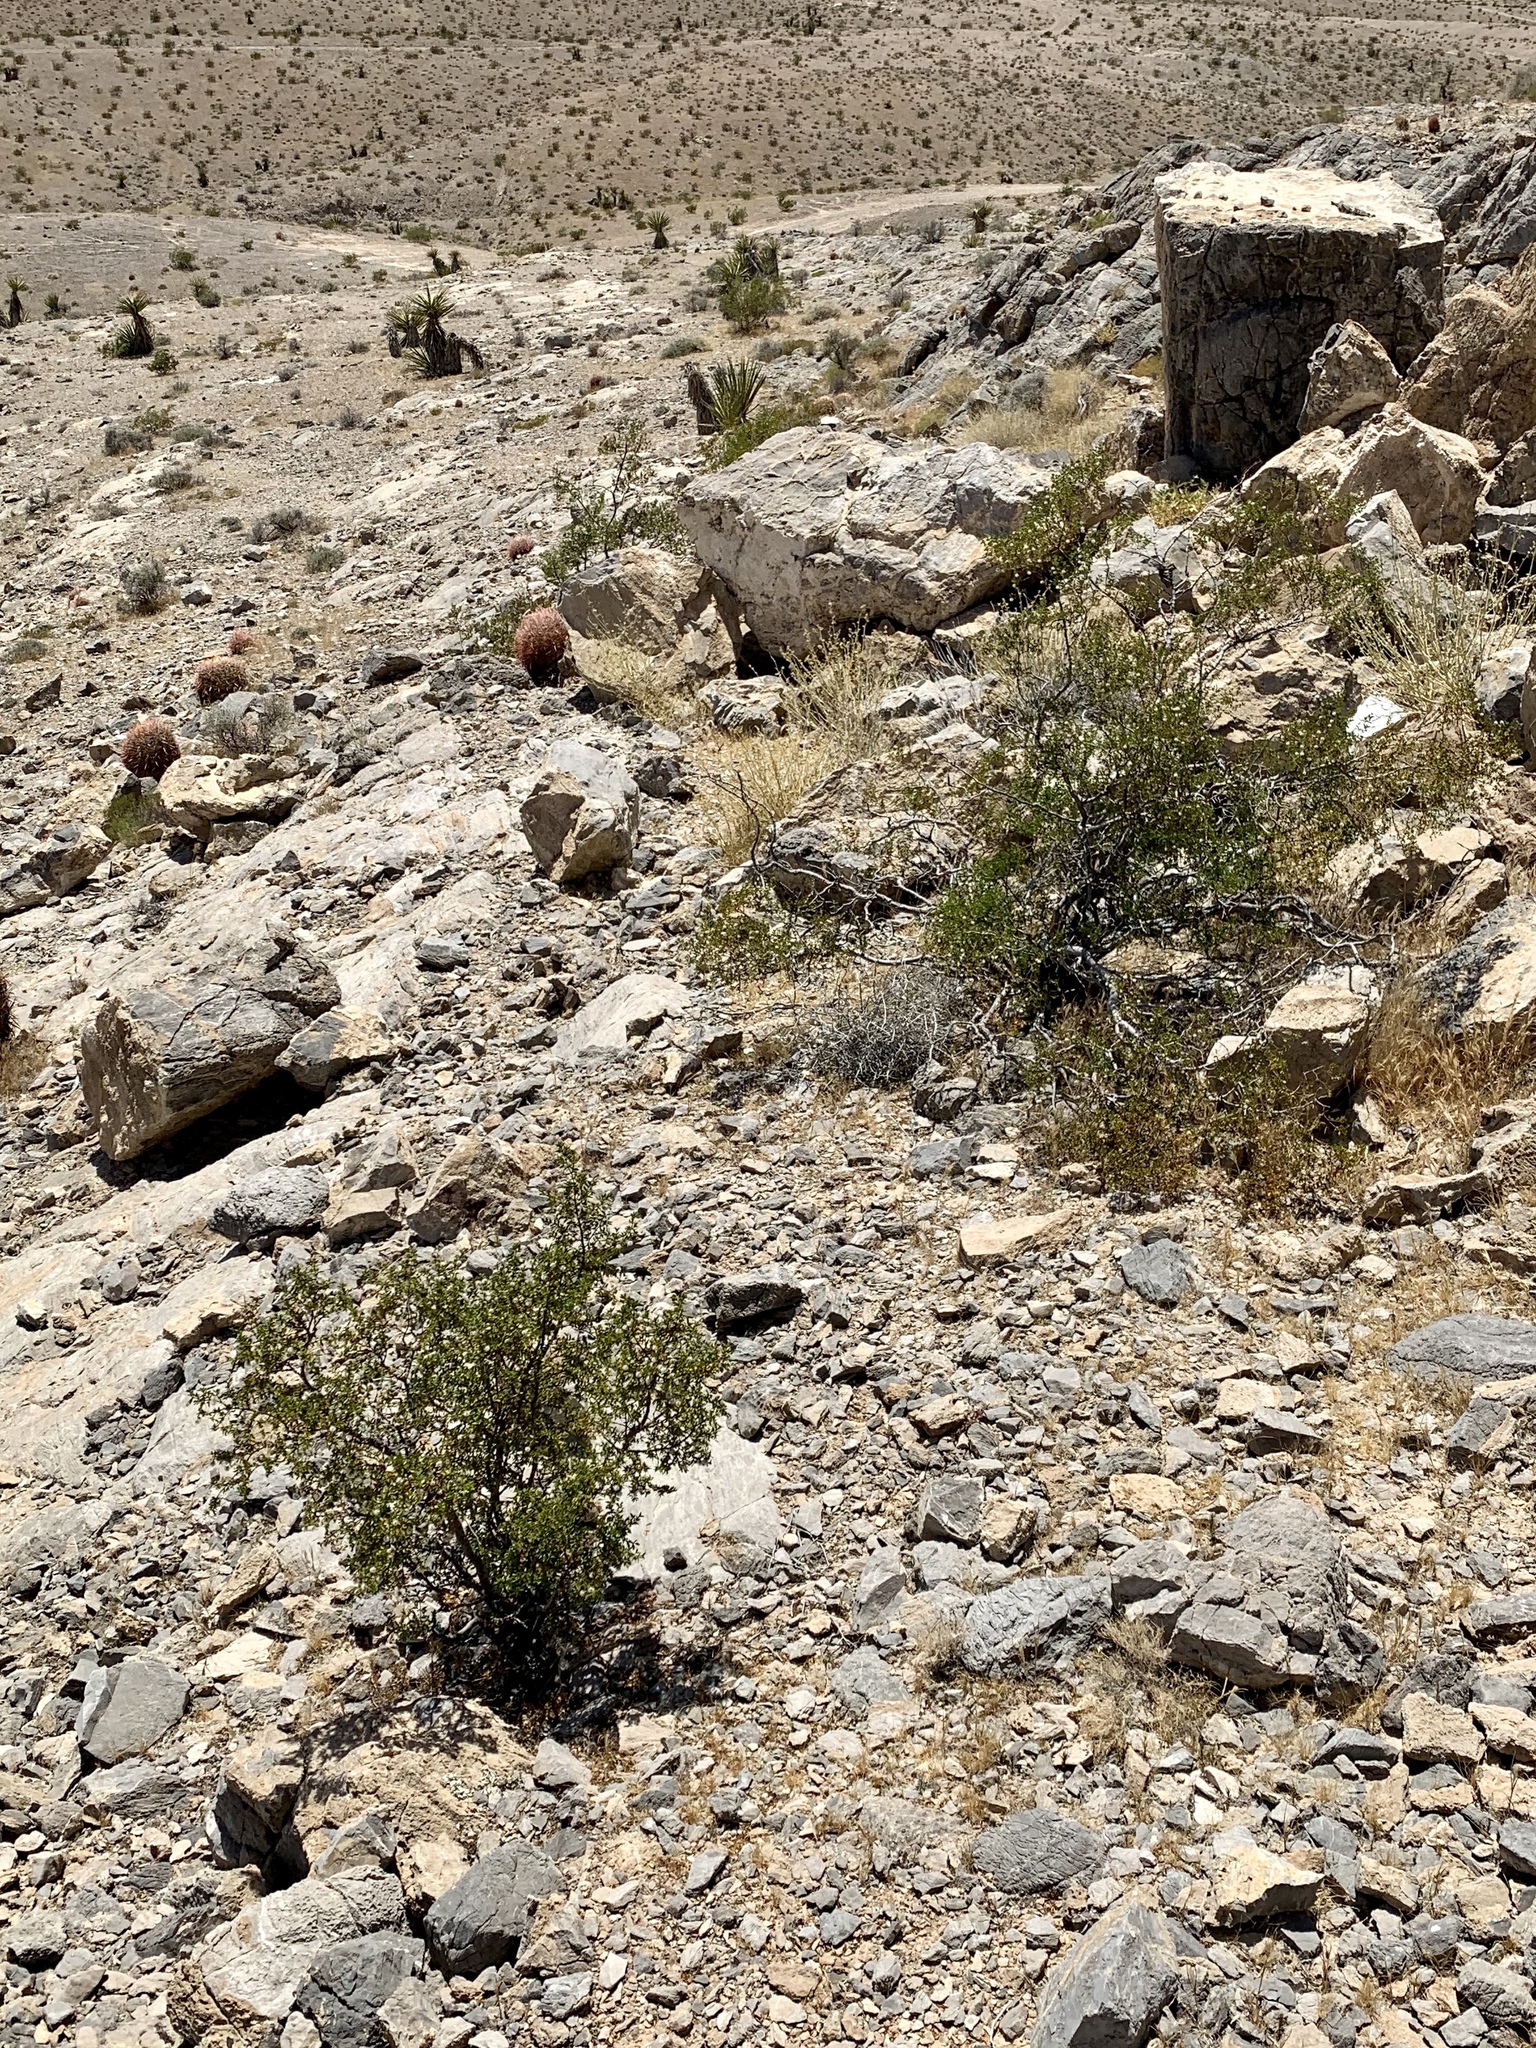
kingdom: Plantae
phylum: Tracheophyta
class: Magnoliopsida
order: Zygophyllales
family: Zygophyllaceae
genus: Larrea
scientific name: Larrea tridentata
